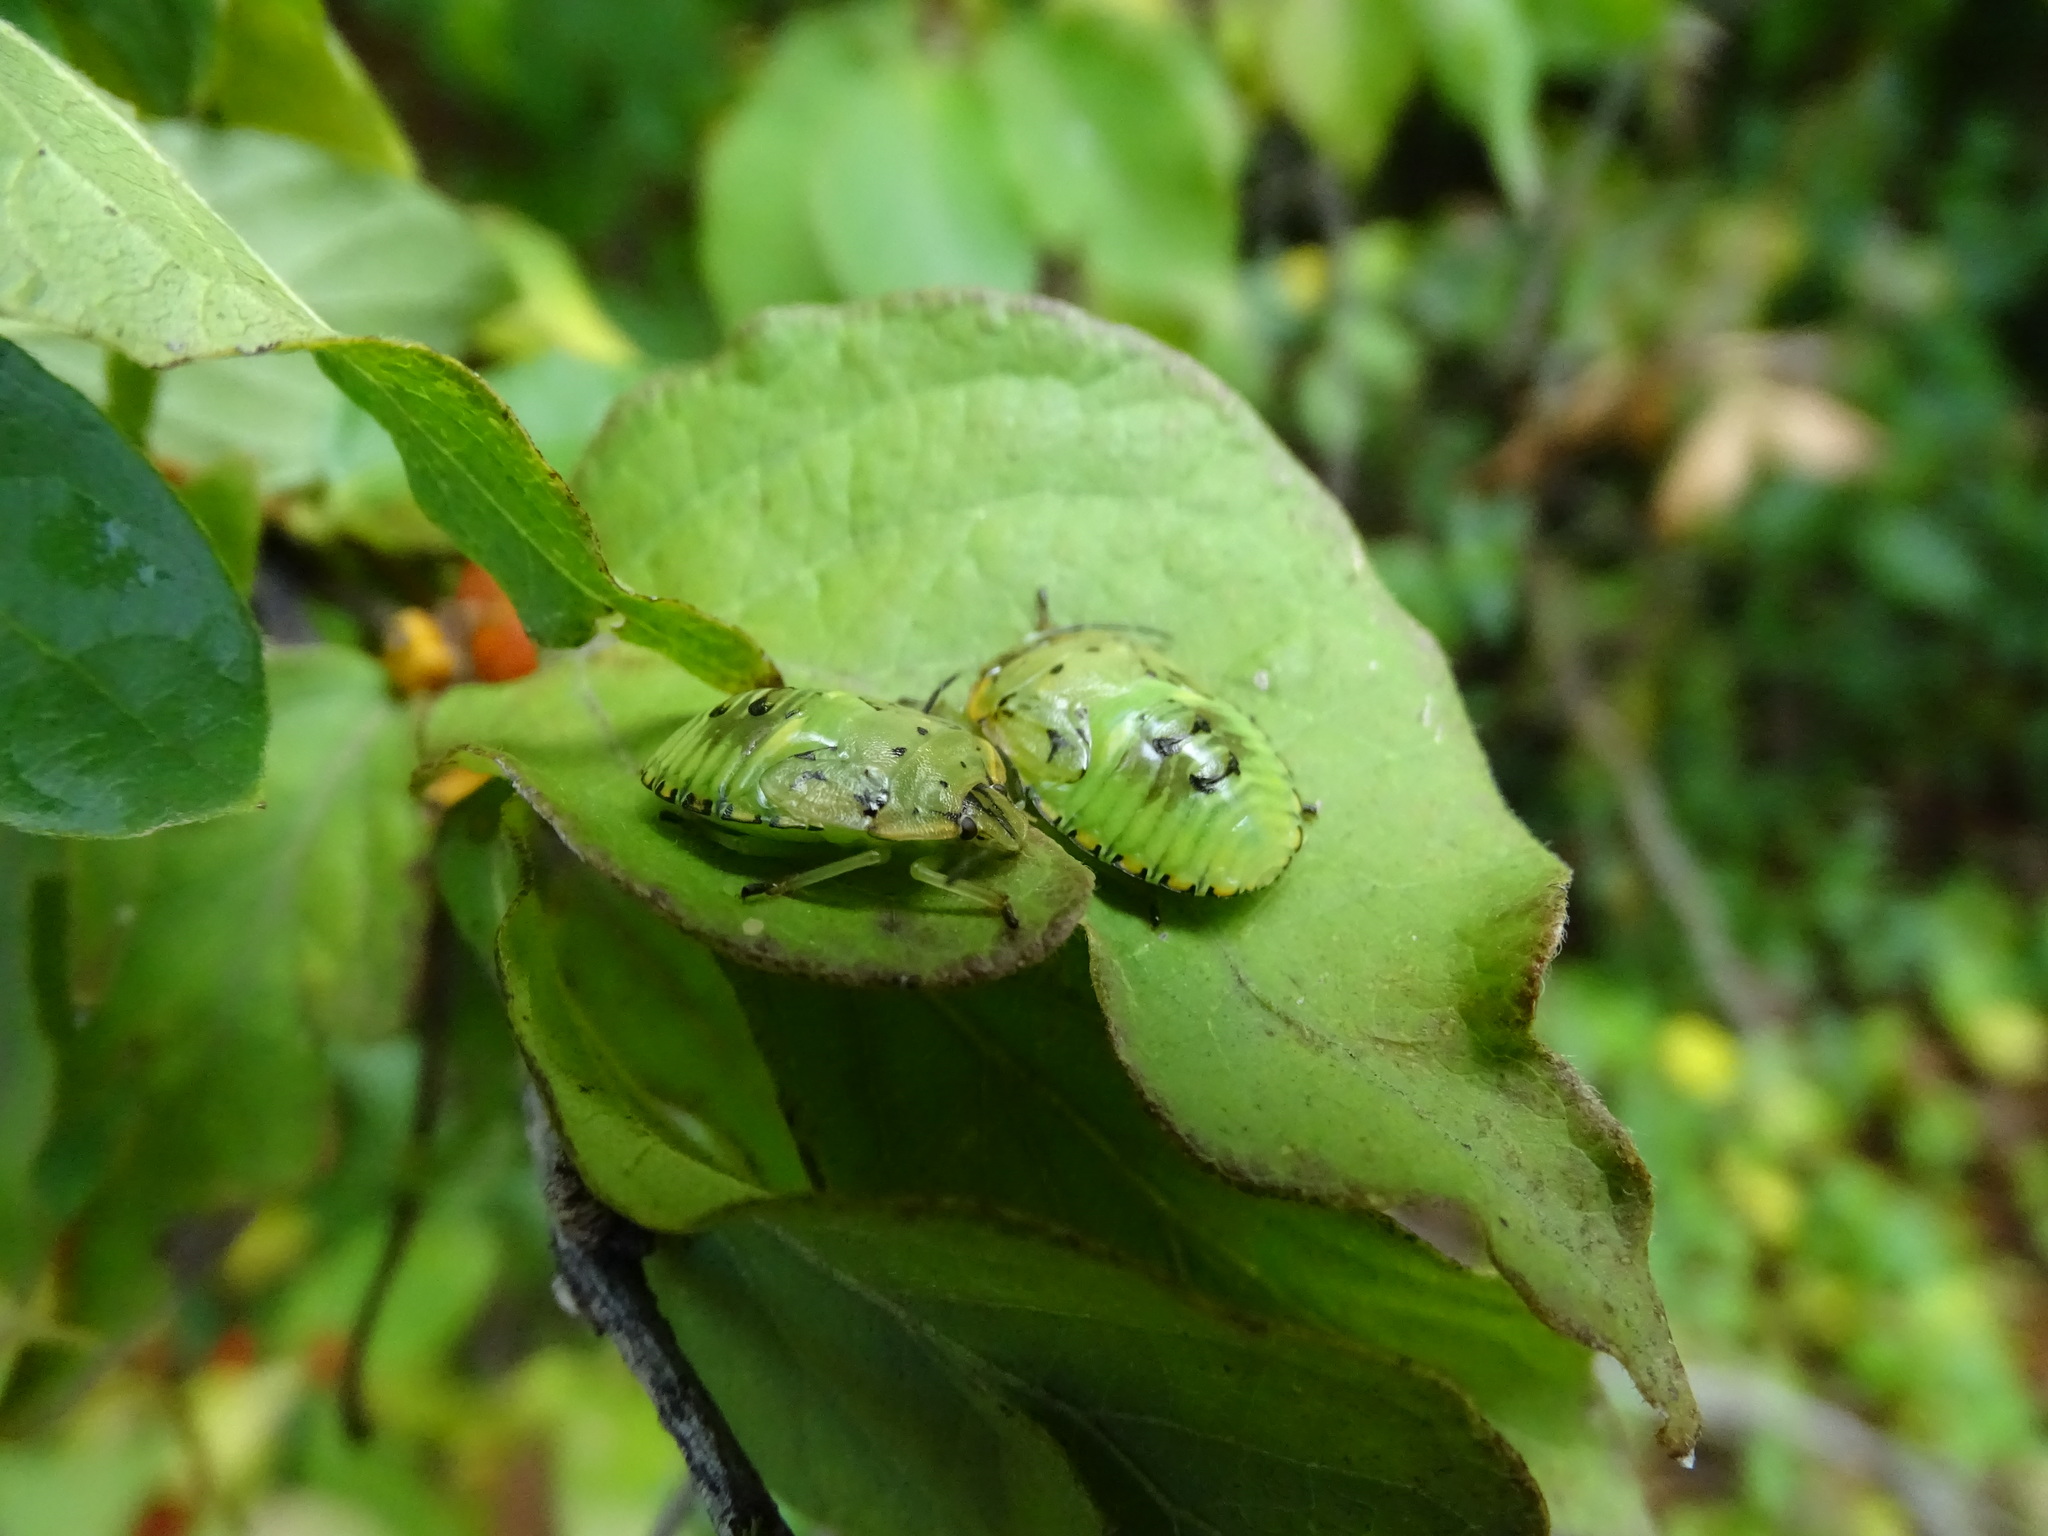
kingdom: Animalia
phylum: Arthropoda
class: Insecta
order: Hemiptera
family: Pentatomidae
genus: Chinavia
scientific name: Chinavia hilaris
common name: Green stink bug
